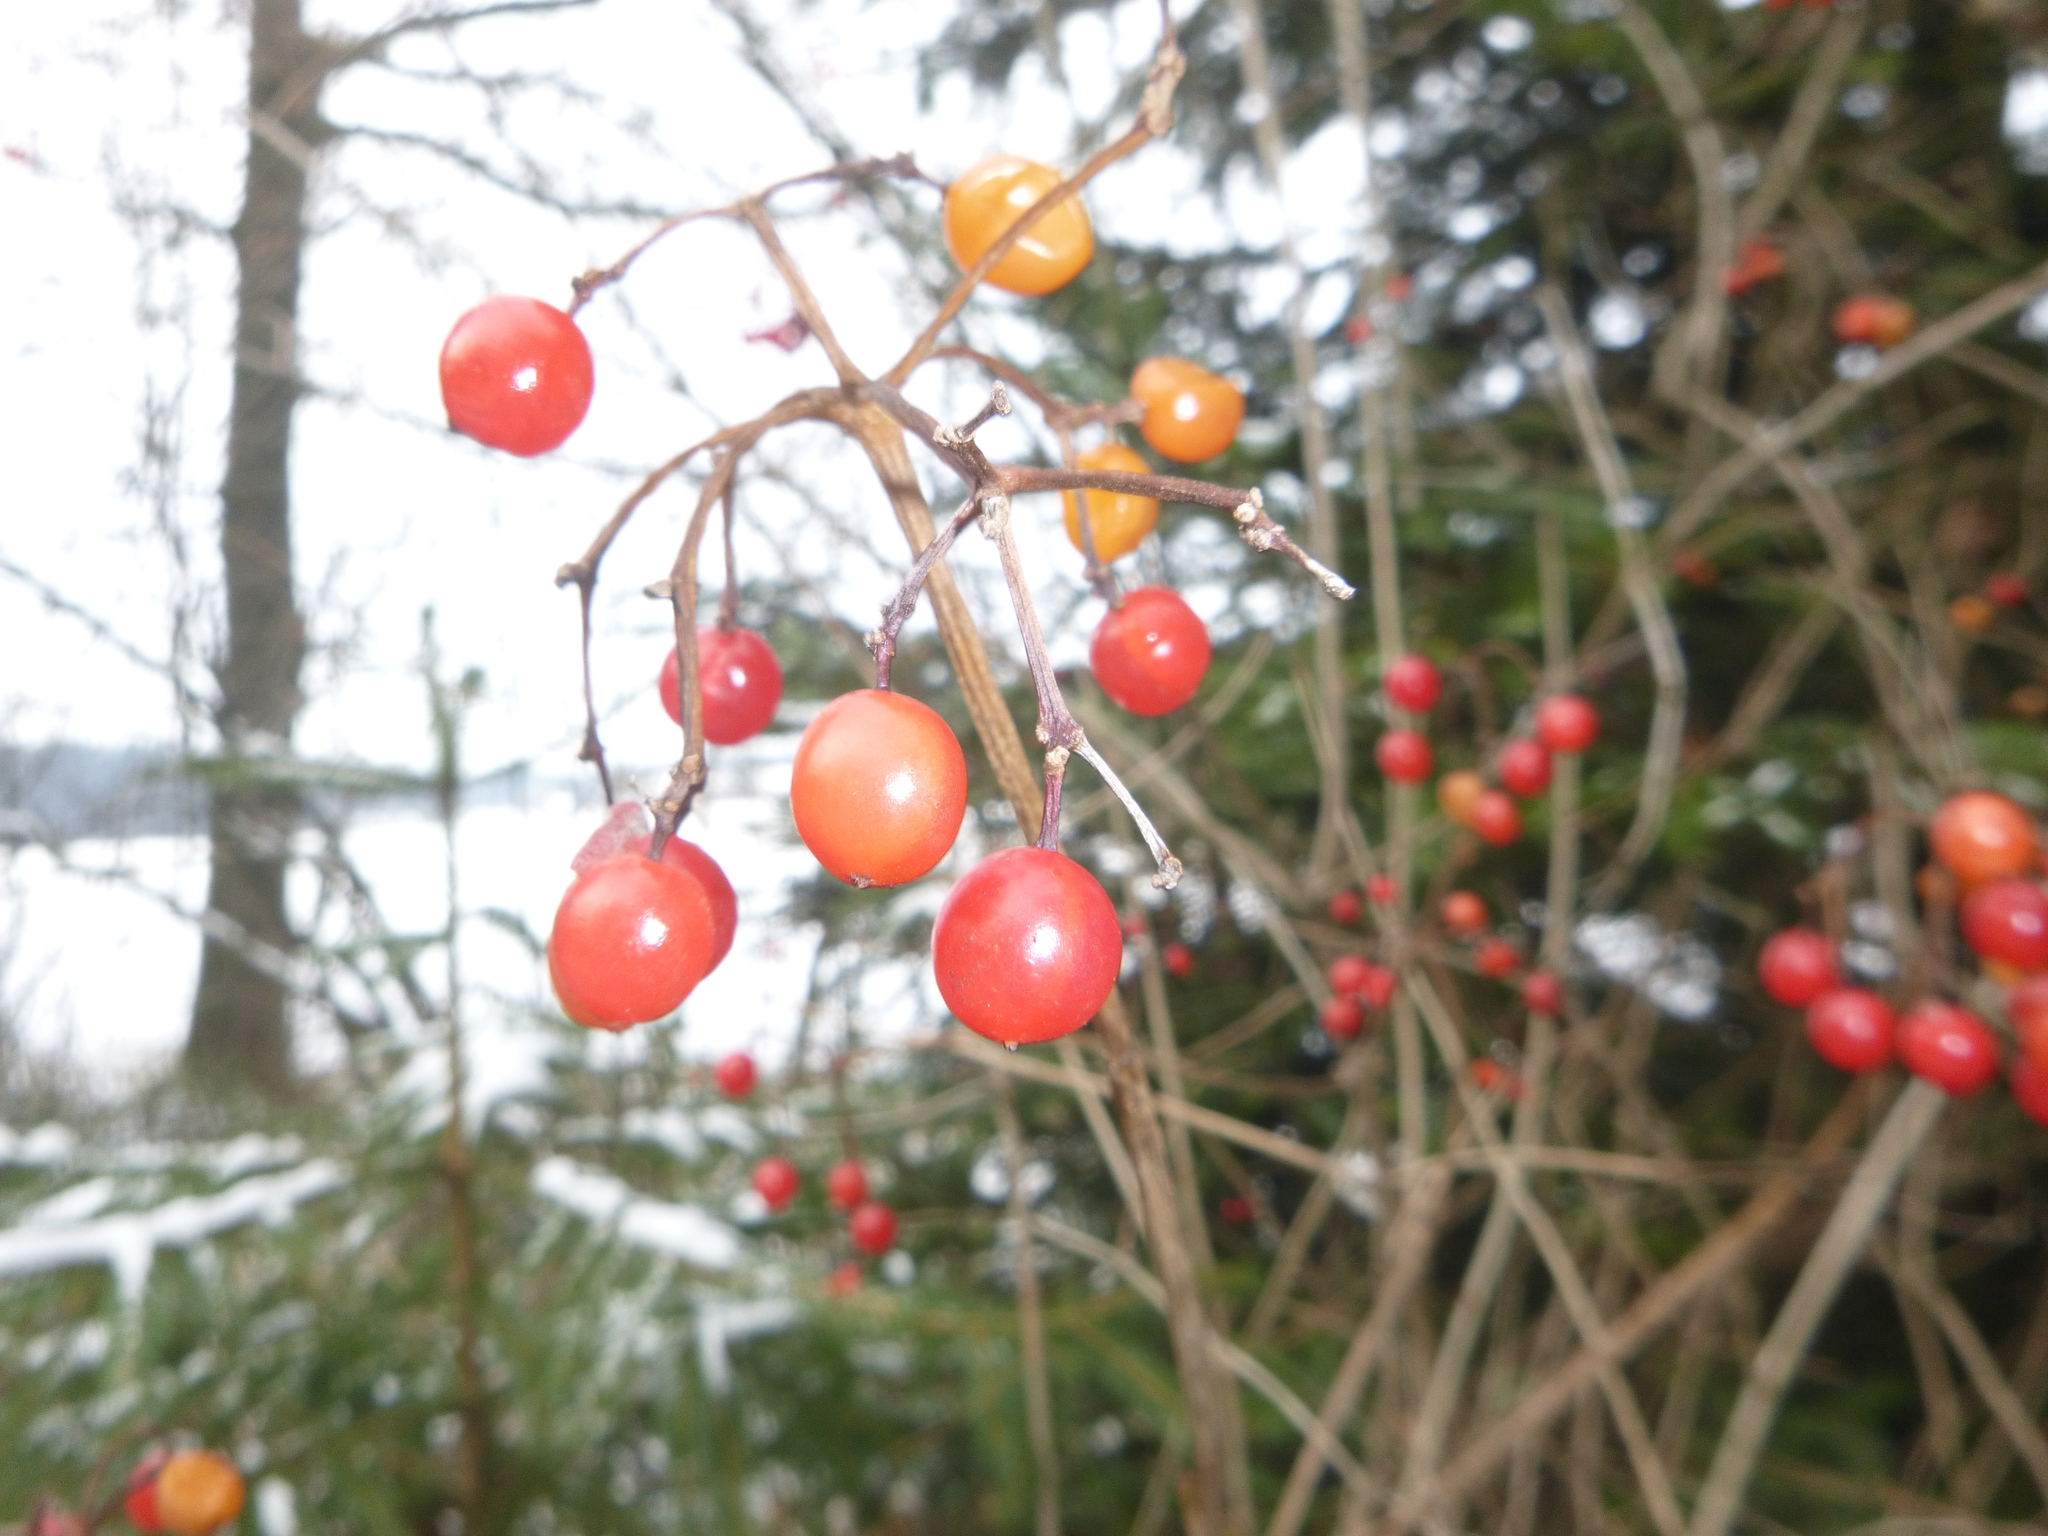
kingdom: Plantae
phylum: Tracheophyta
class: Magnoliopsida
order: Dipsacales
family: Viburnaceae
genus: Viburnum
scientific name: Viburnum opulus
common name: Guelder-rose
